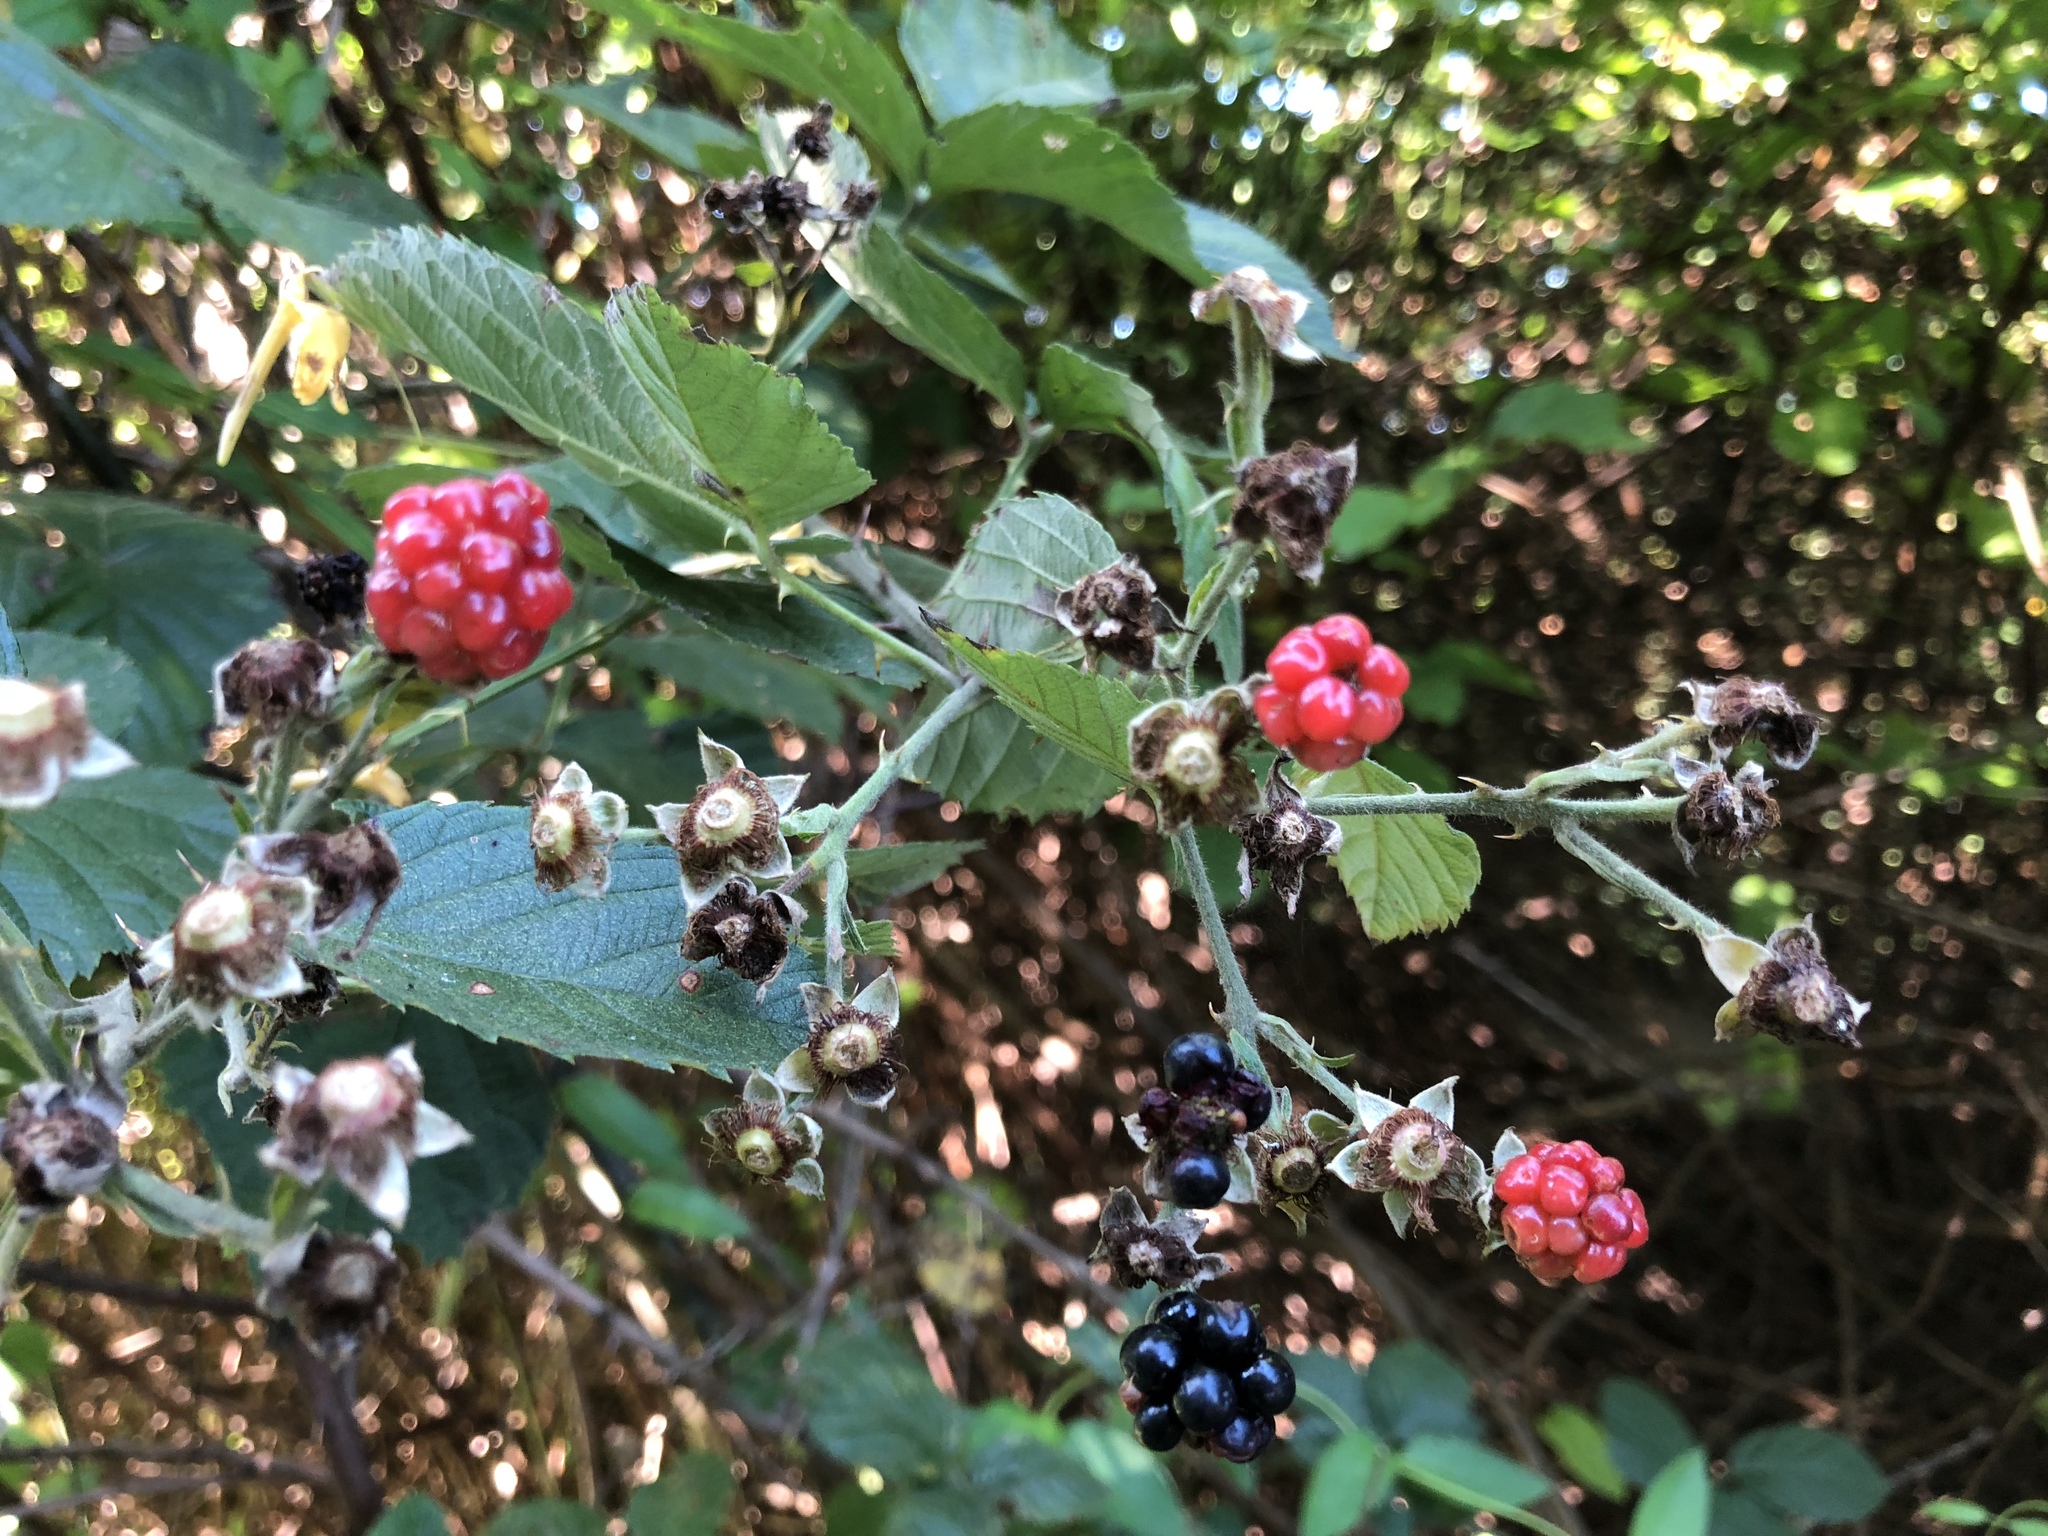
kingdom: Plantae
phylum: Tracheophyta
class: Magnoliopsida
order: Rosales
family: Rosaceae
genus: Rubus
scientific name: Rubus allegheniensis
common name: Allegheny blackberry
